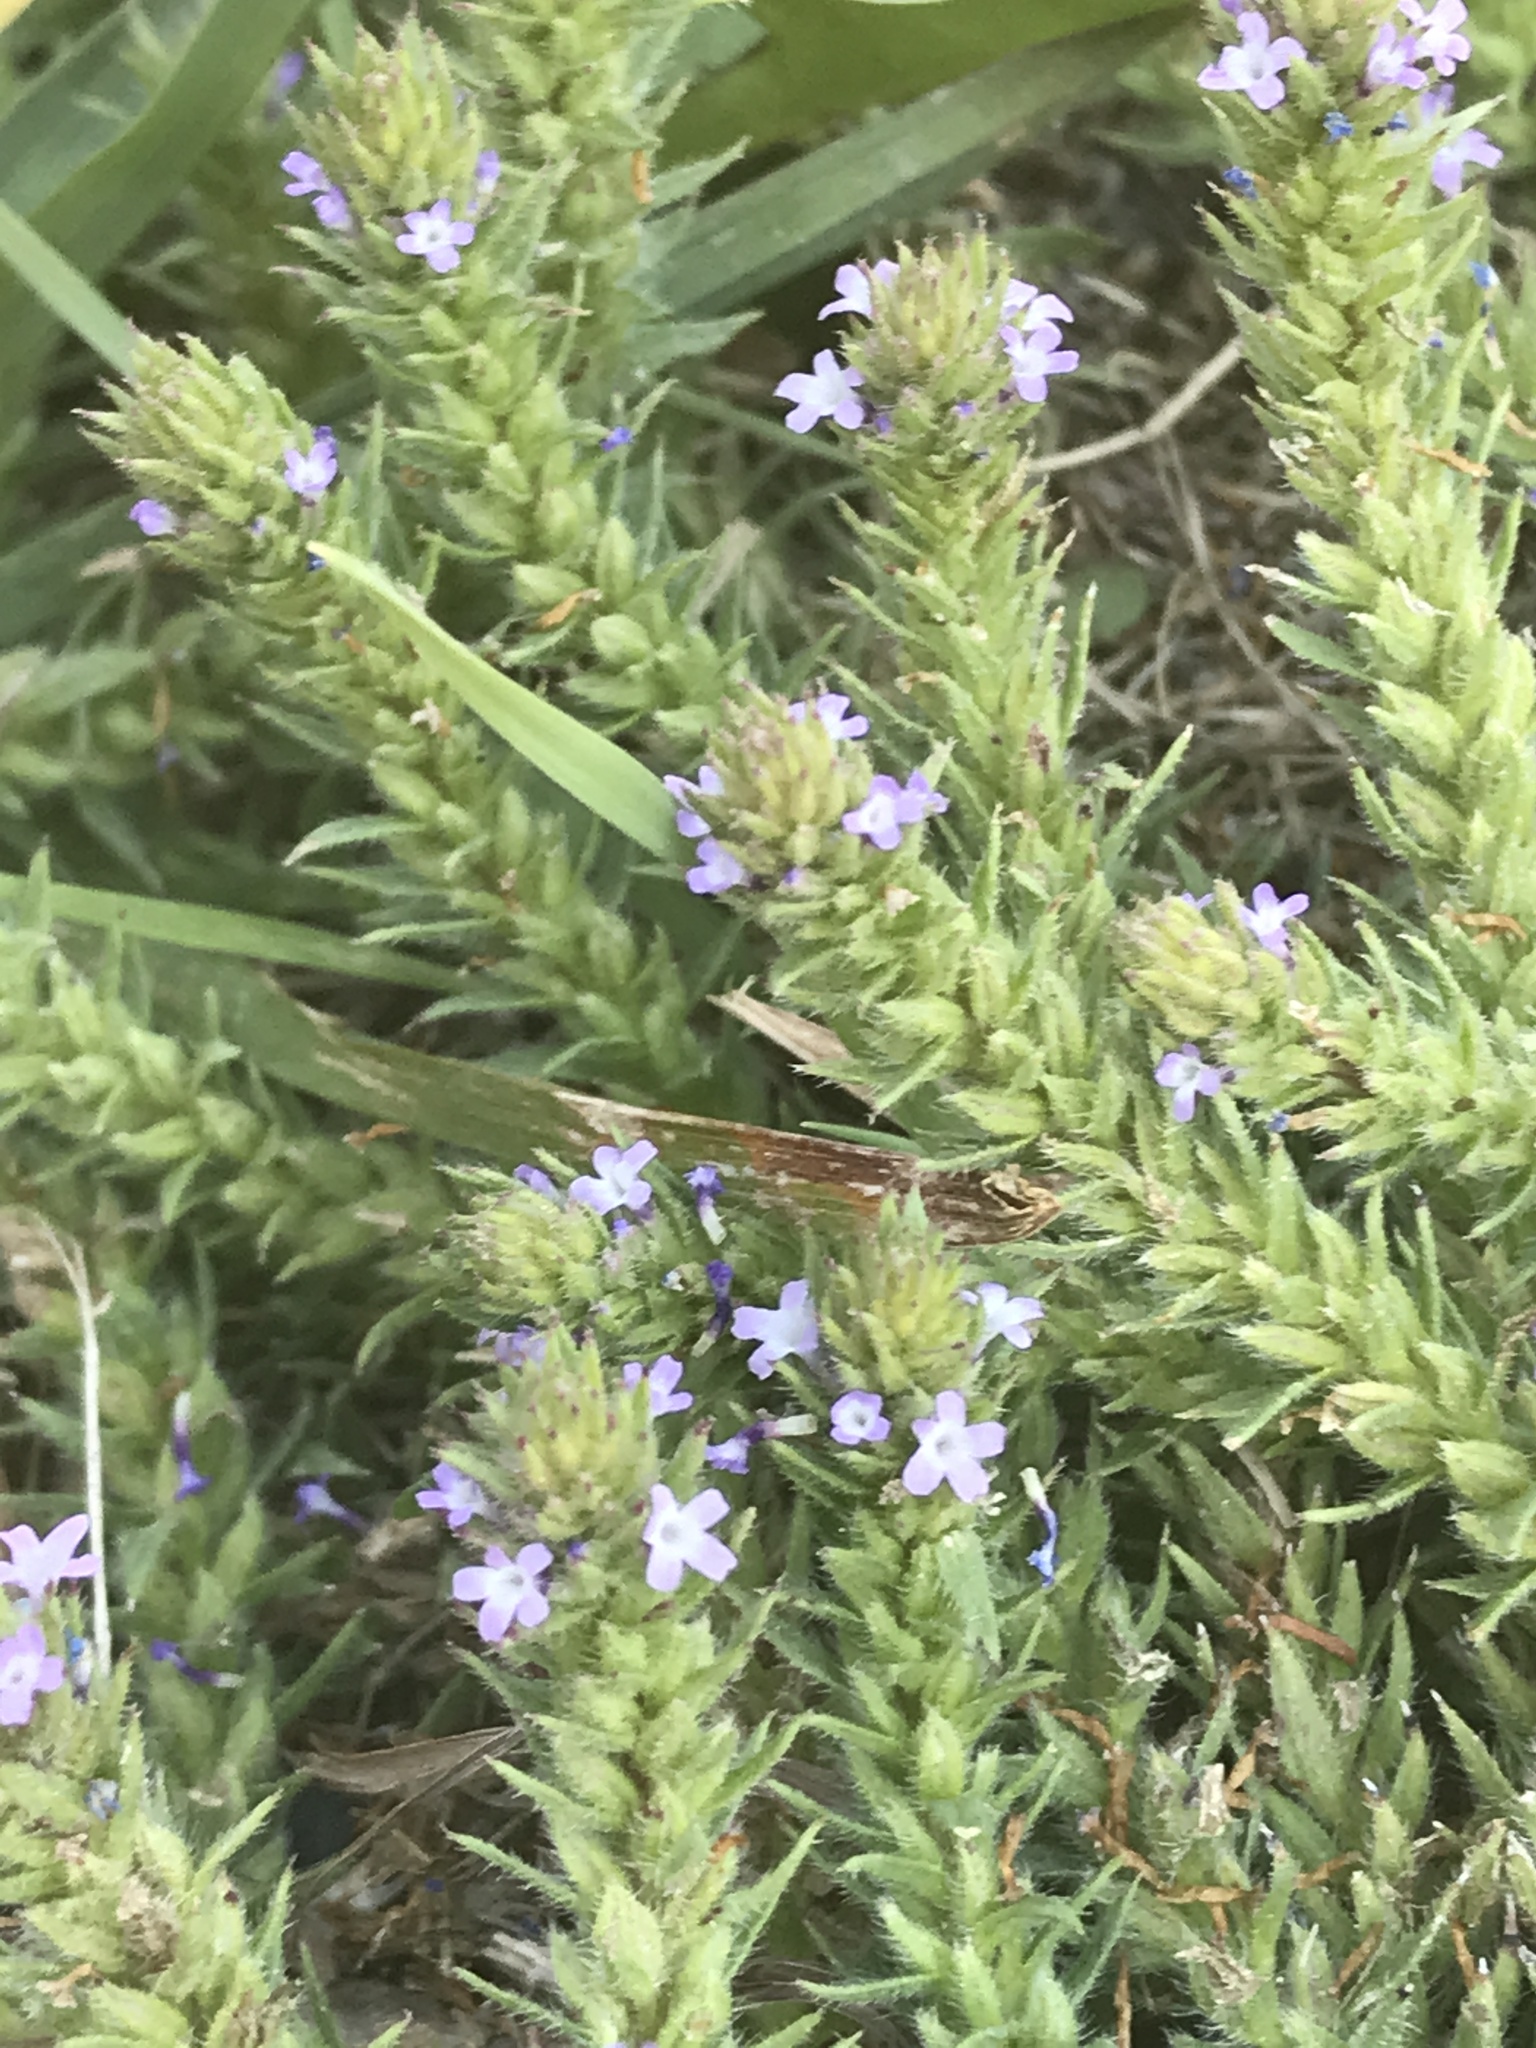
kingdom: Plantae
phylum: Tracheophyta
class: Magnoliopsida
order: Lamiales
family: Verbenaceae
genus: Verbena
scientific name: Verbena bracteata
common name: Bracted vervain
